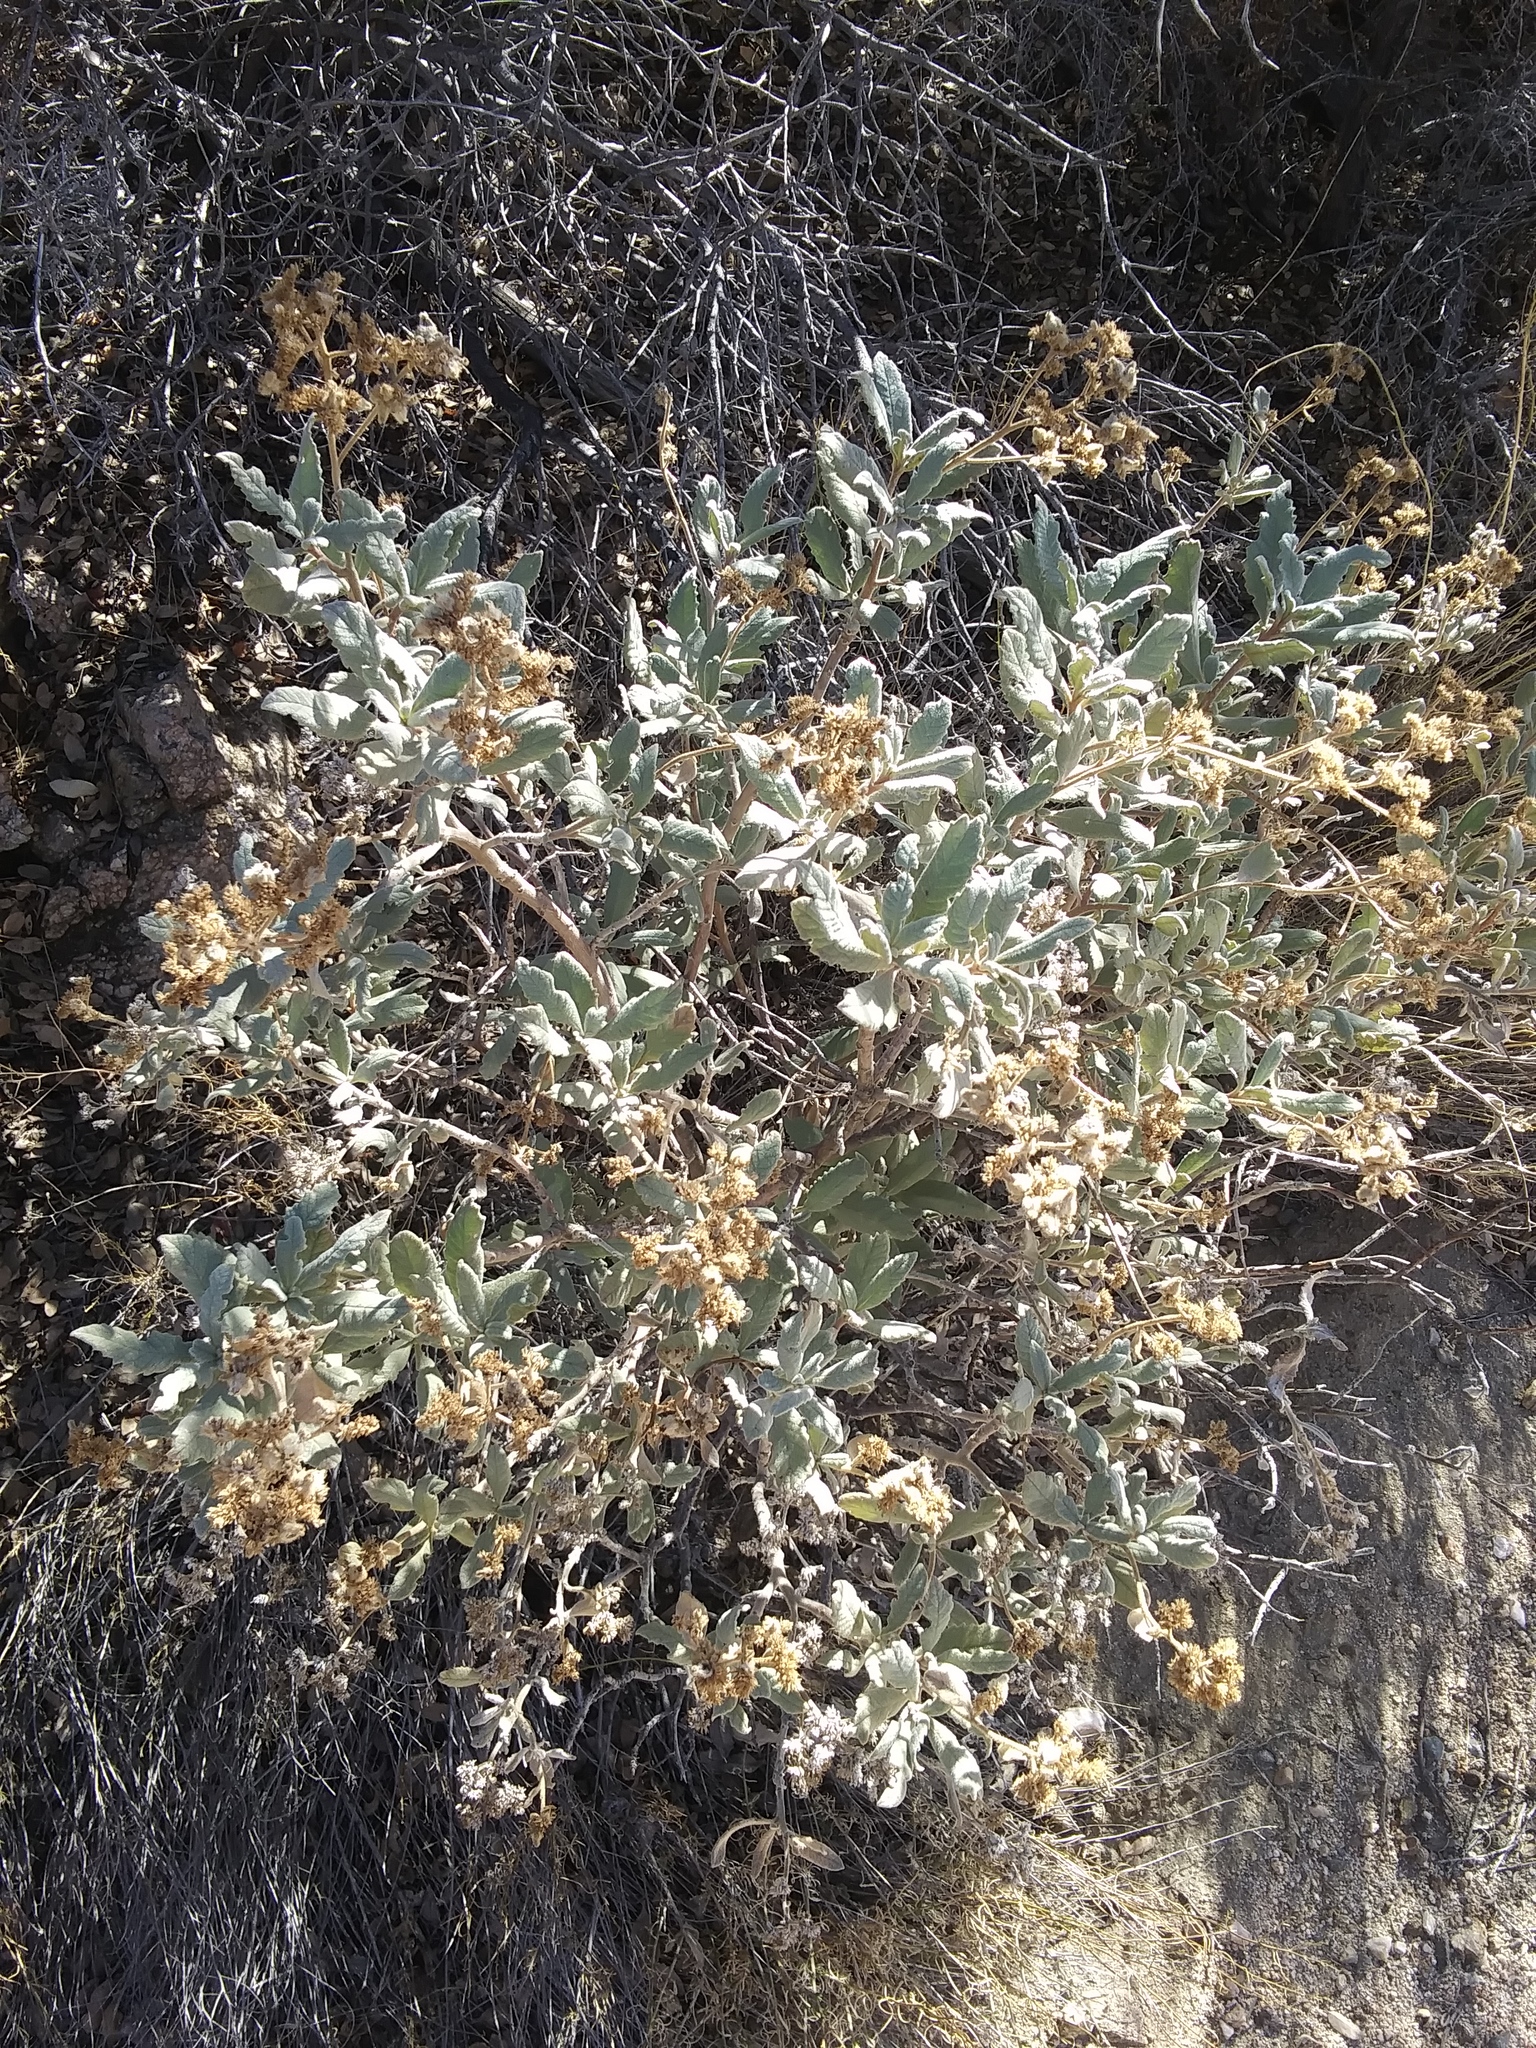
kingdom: Plantae
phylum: Tracheophyta
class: Magnoliopsida
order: Boraginales
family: Namaceae
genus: Eriodictyon
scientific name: Eriodictyon crassifolium
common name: Thick-leaf yerba-santa
